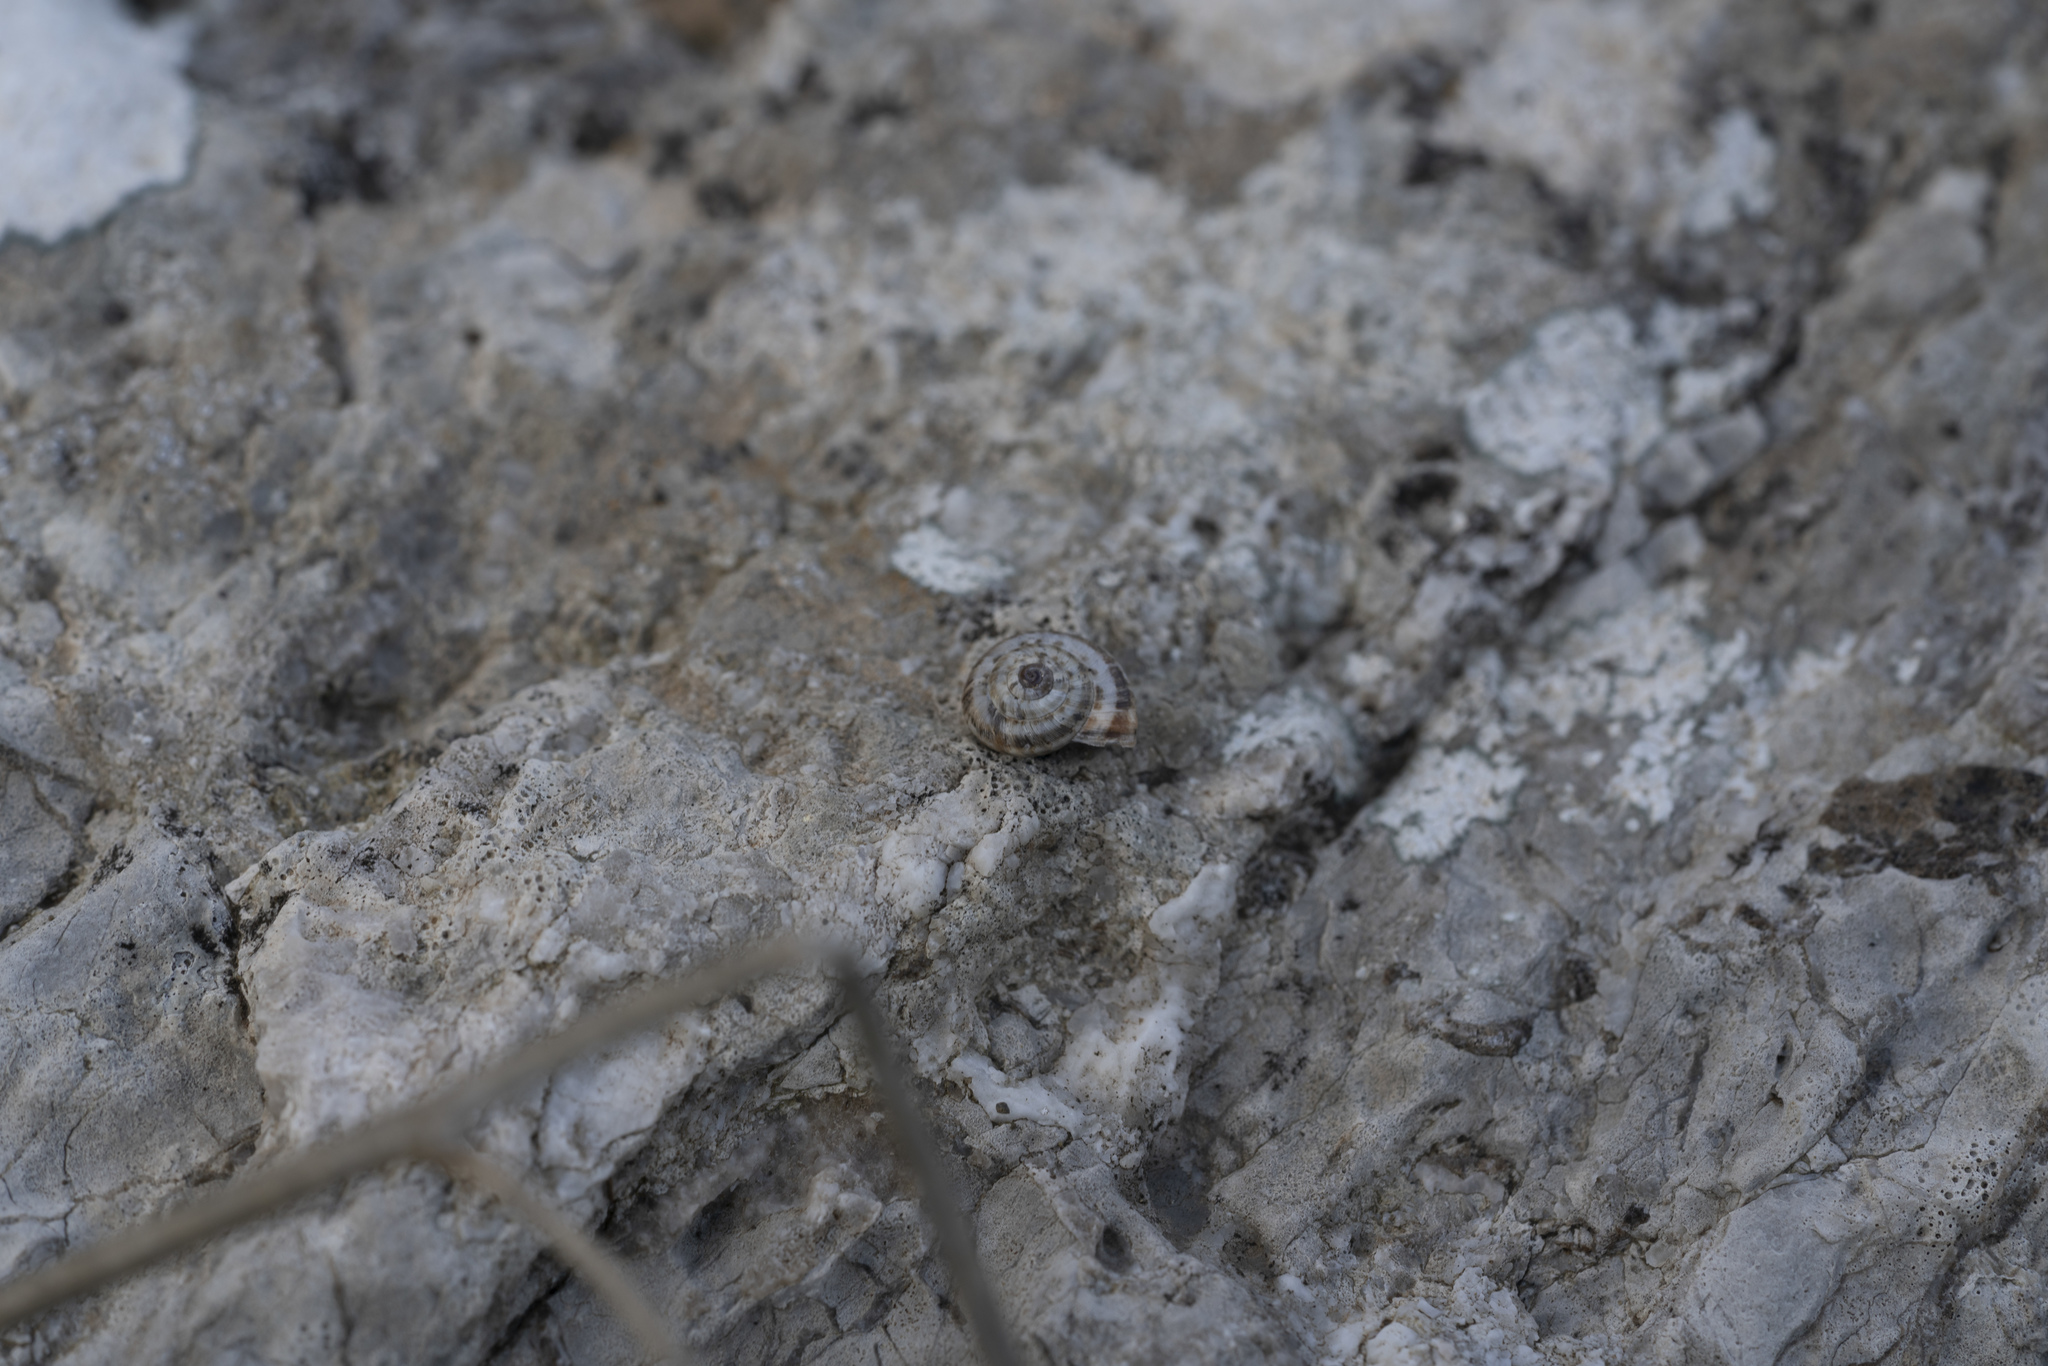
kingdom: Animalia
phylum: Mollusca
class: Gastropoda
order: Stylommatophora
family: Geomitridae
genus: Xeropicta
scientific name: Xeropicta krynickii
